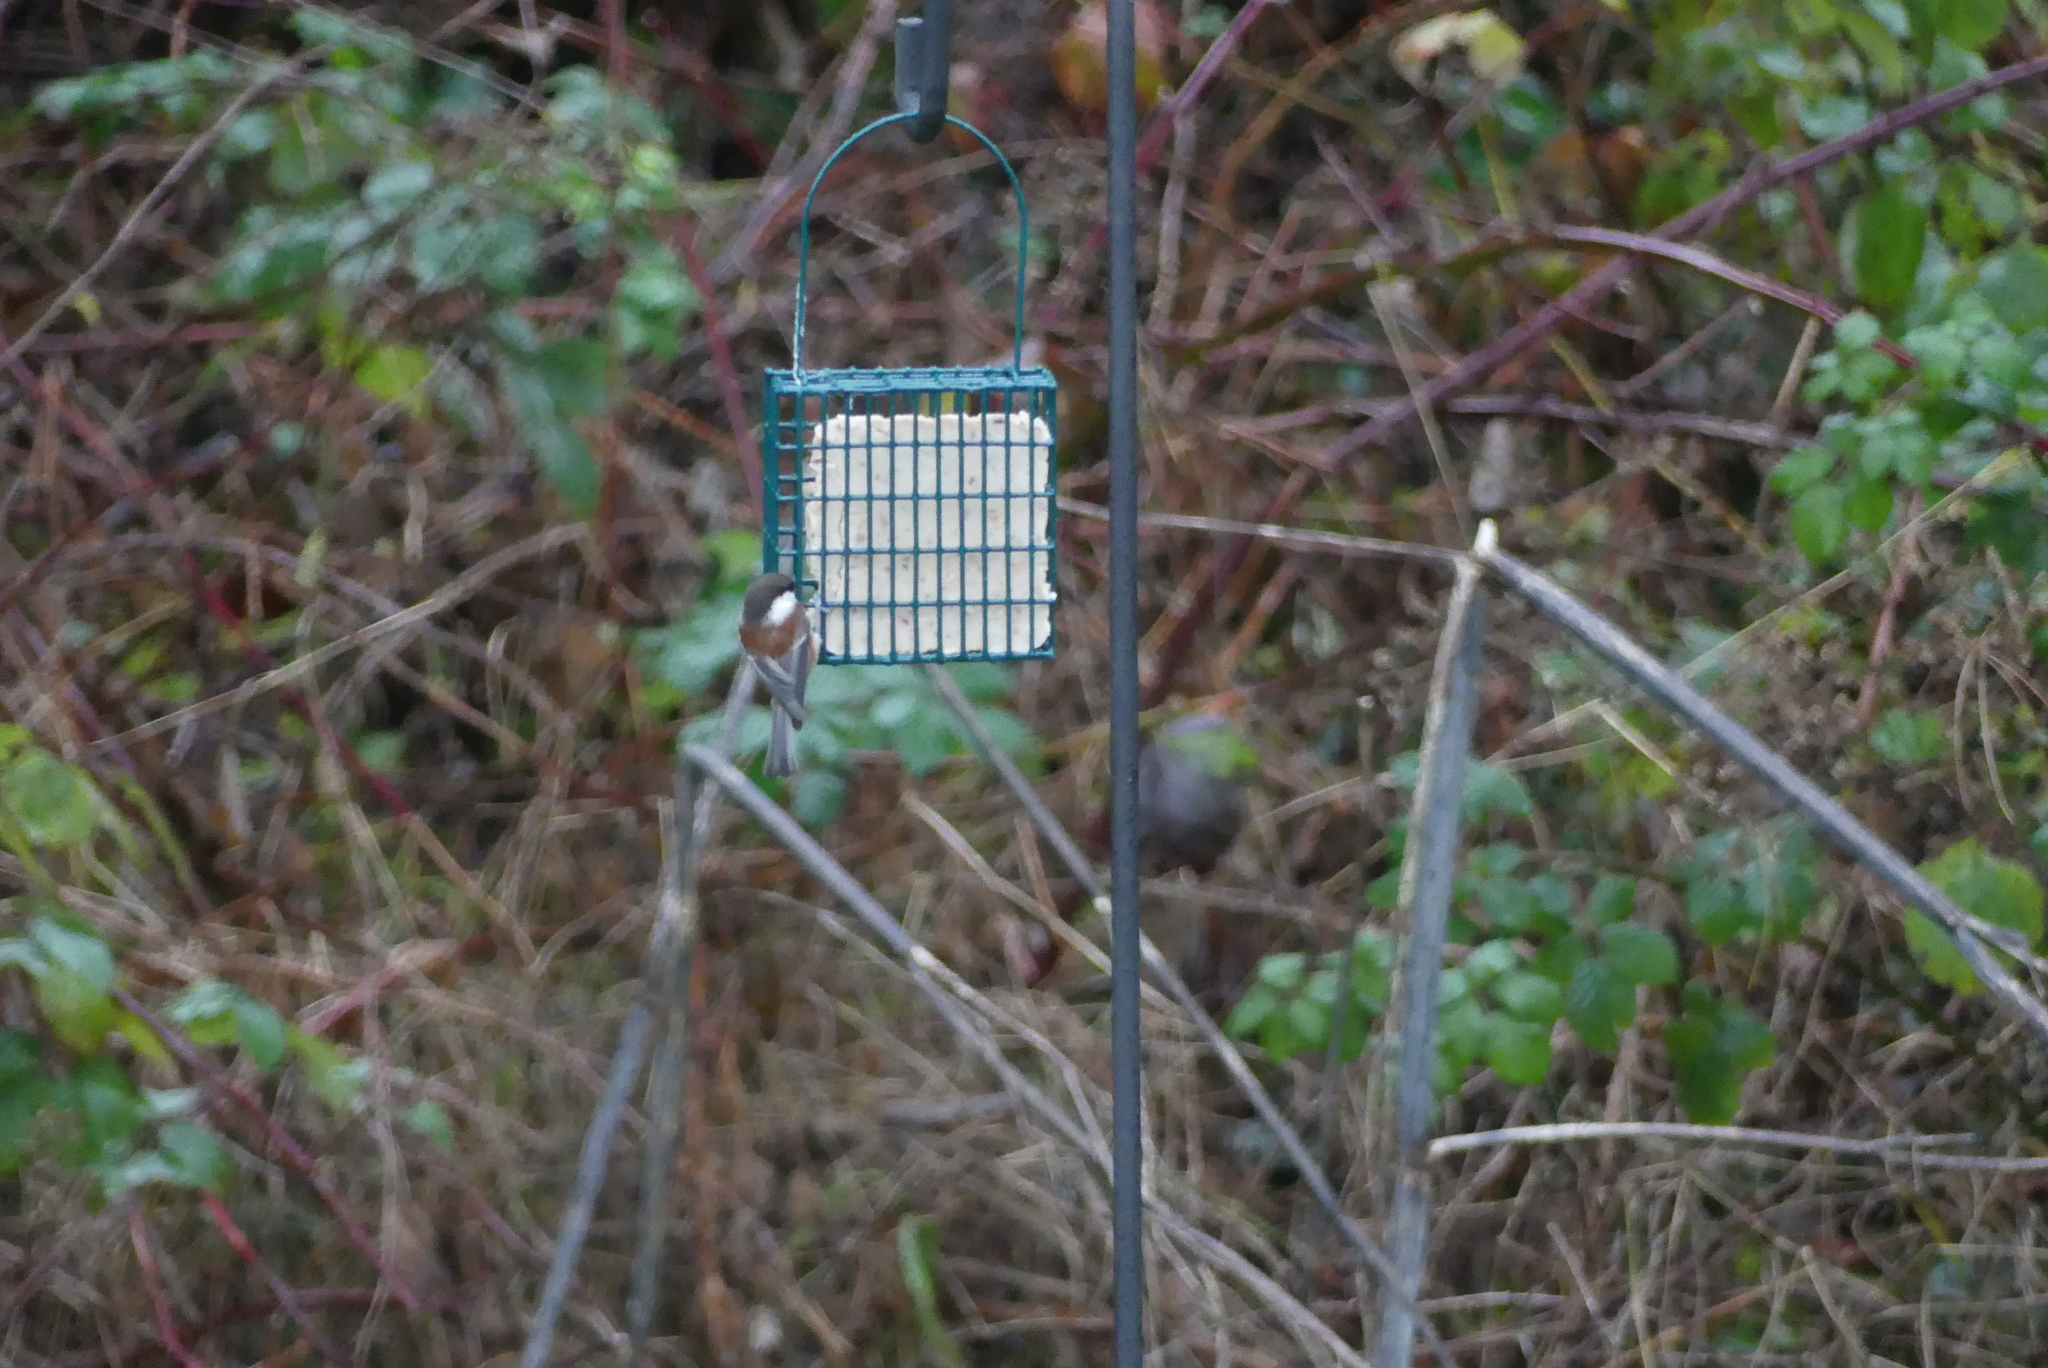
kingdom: Animalia
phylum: Chordata
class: Aves
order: Passeriformes
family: Paridae
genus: Poecile
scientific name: Poecile rufescens
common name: Chestnut-backed chickadee
